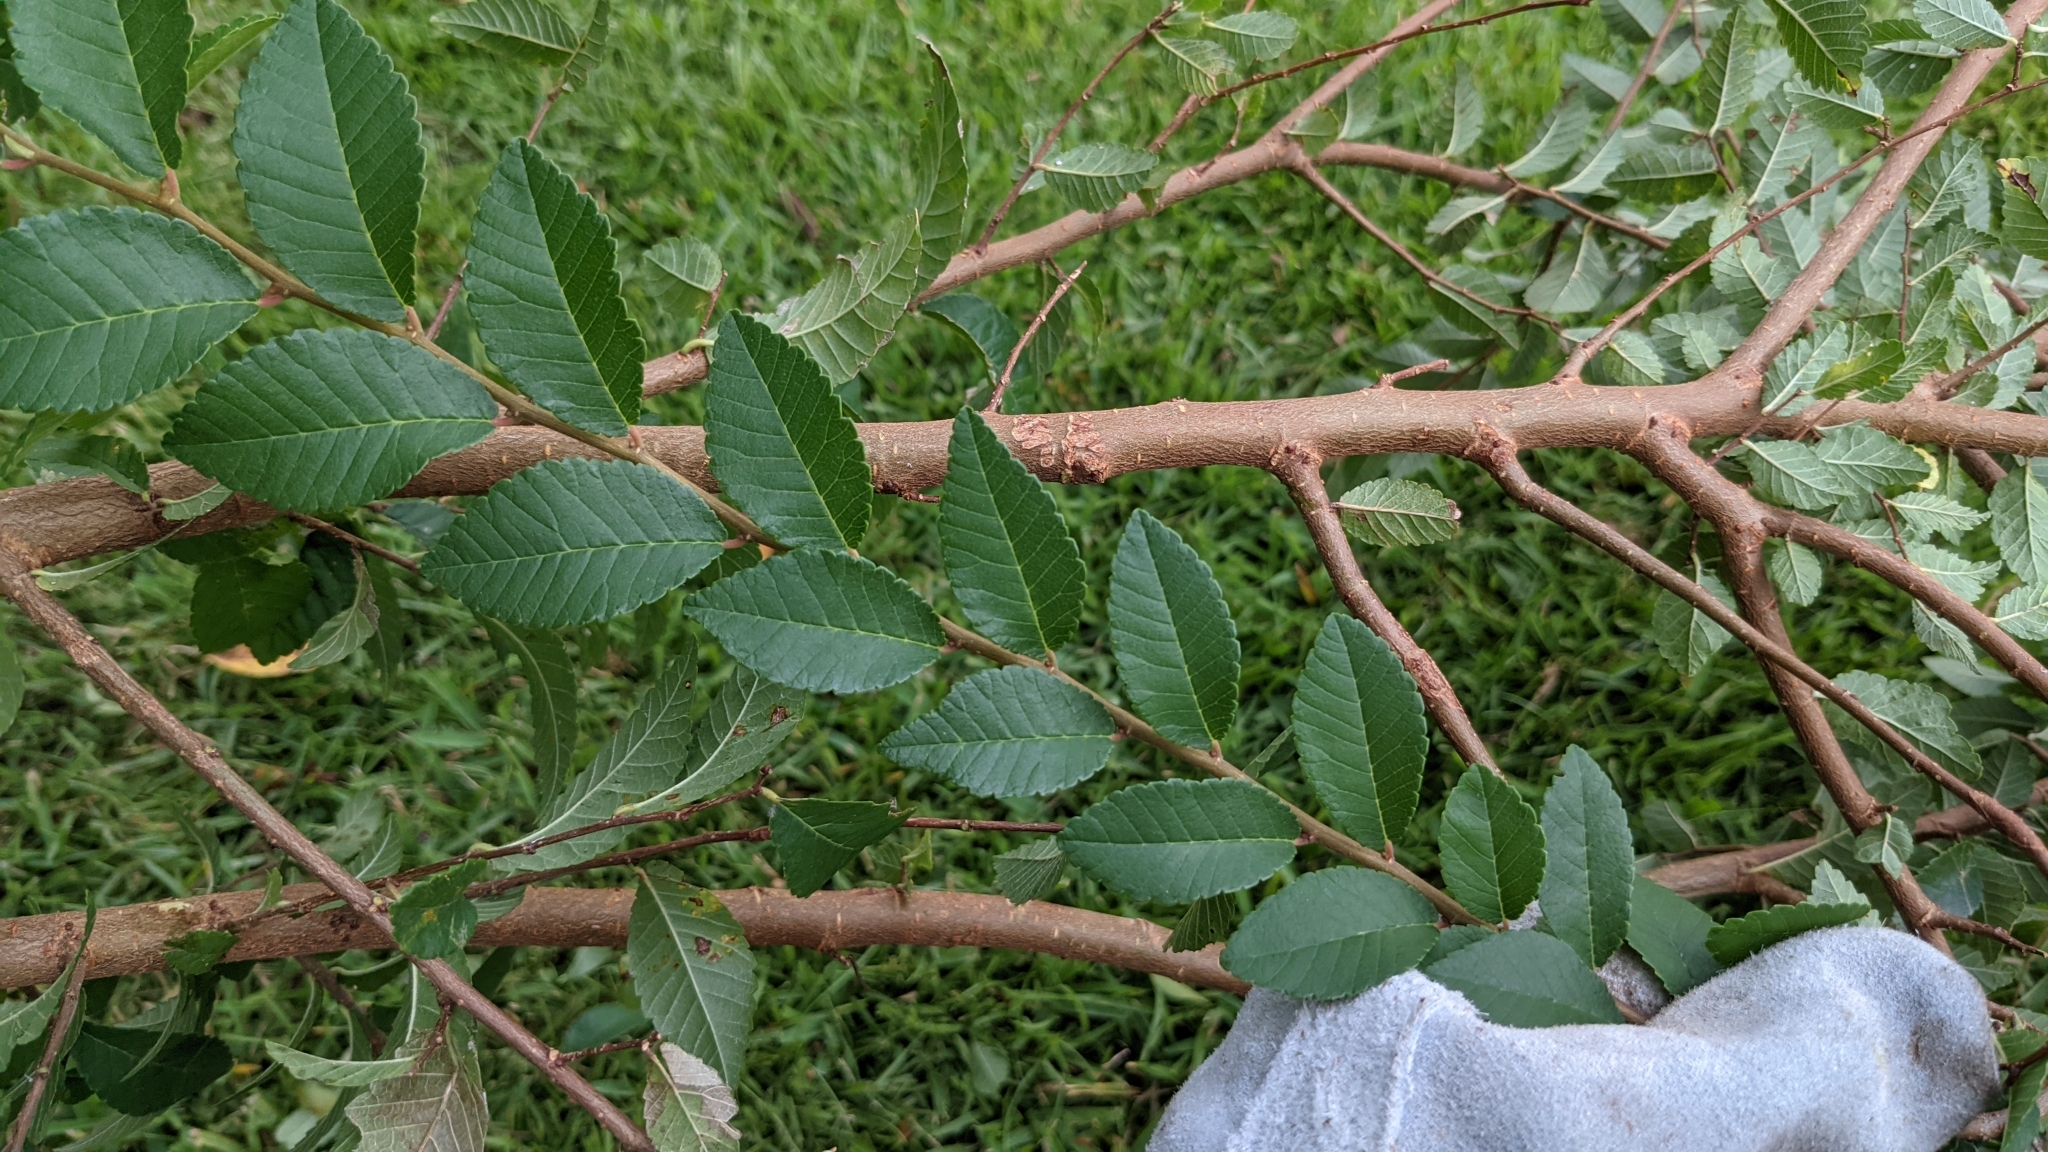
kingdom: Plantae
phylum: Tracheophyta
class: Magnoliopsida
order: Rosales
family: Ulmaceae
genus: Ulmus
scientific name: Ulmus parvifolia
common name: Chinese elm
